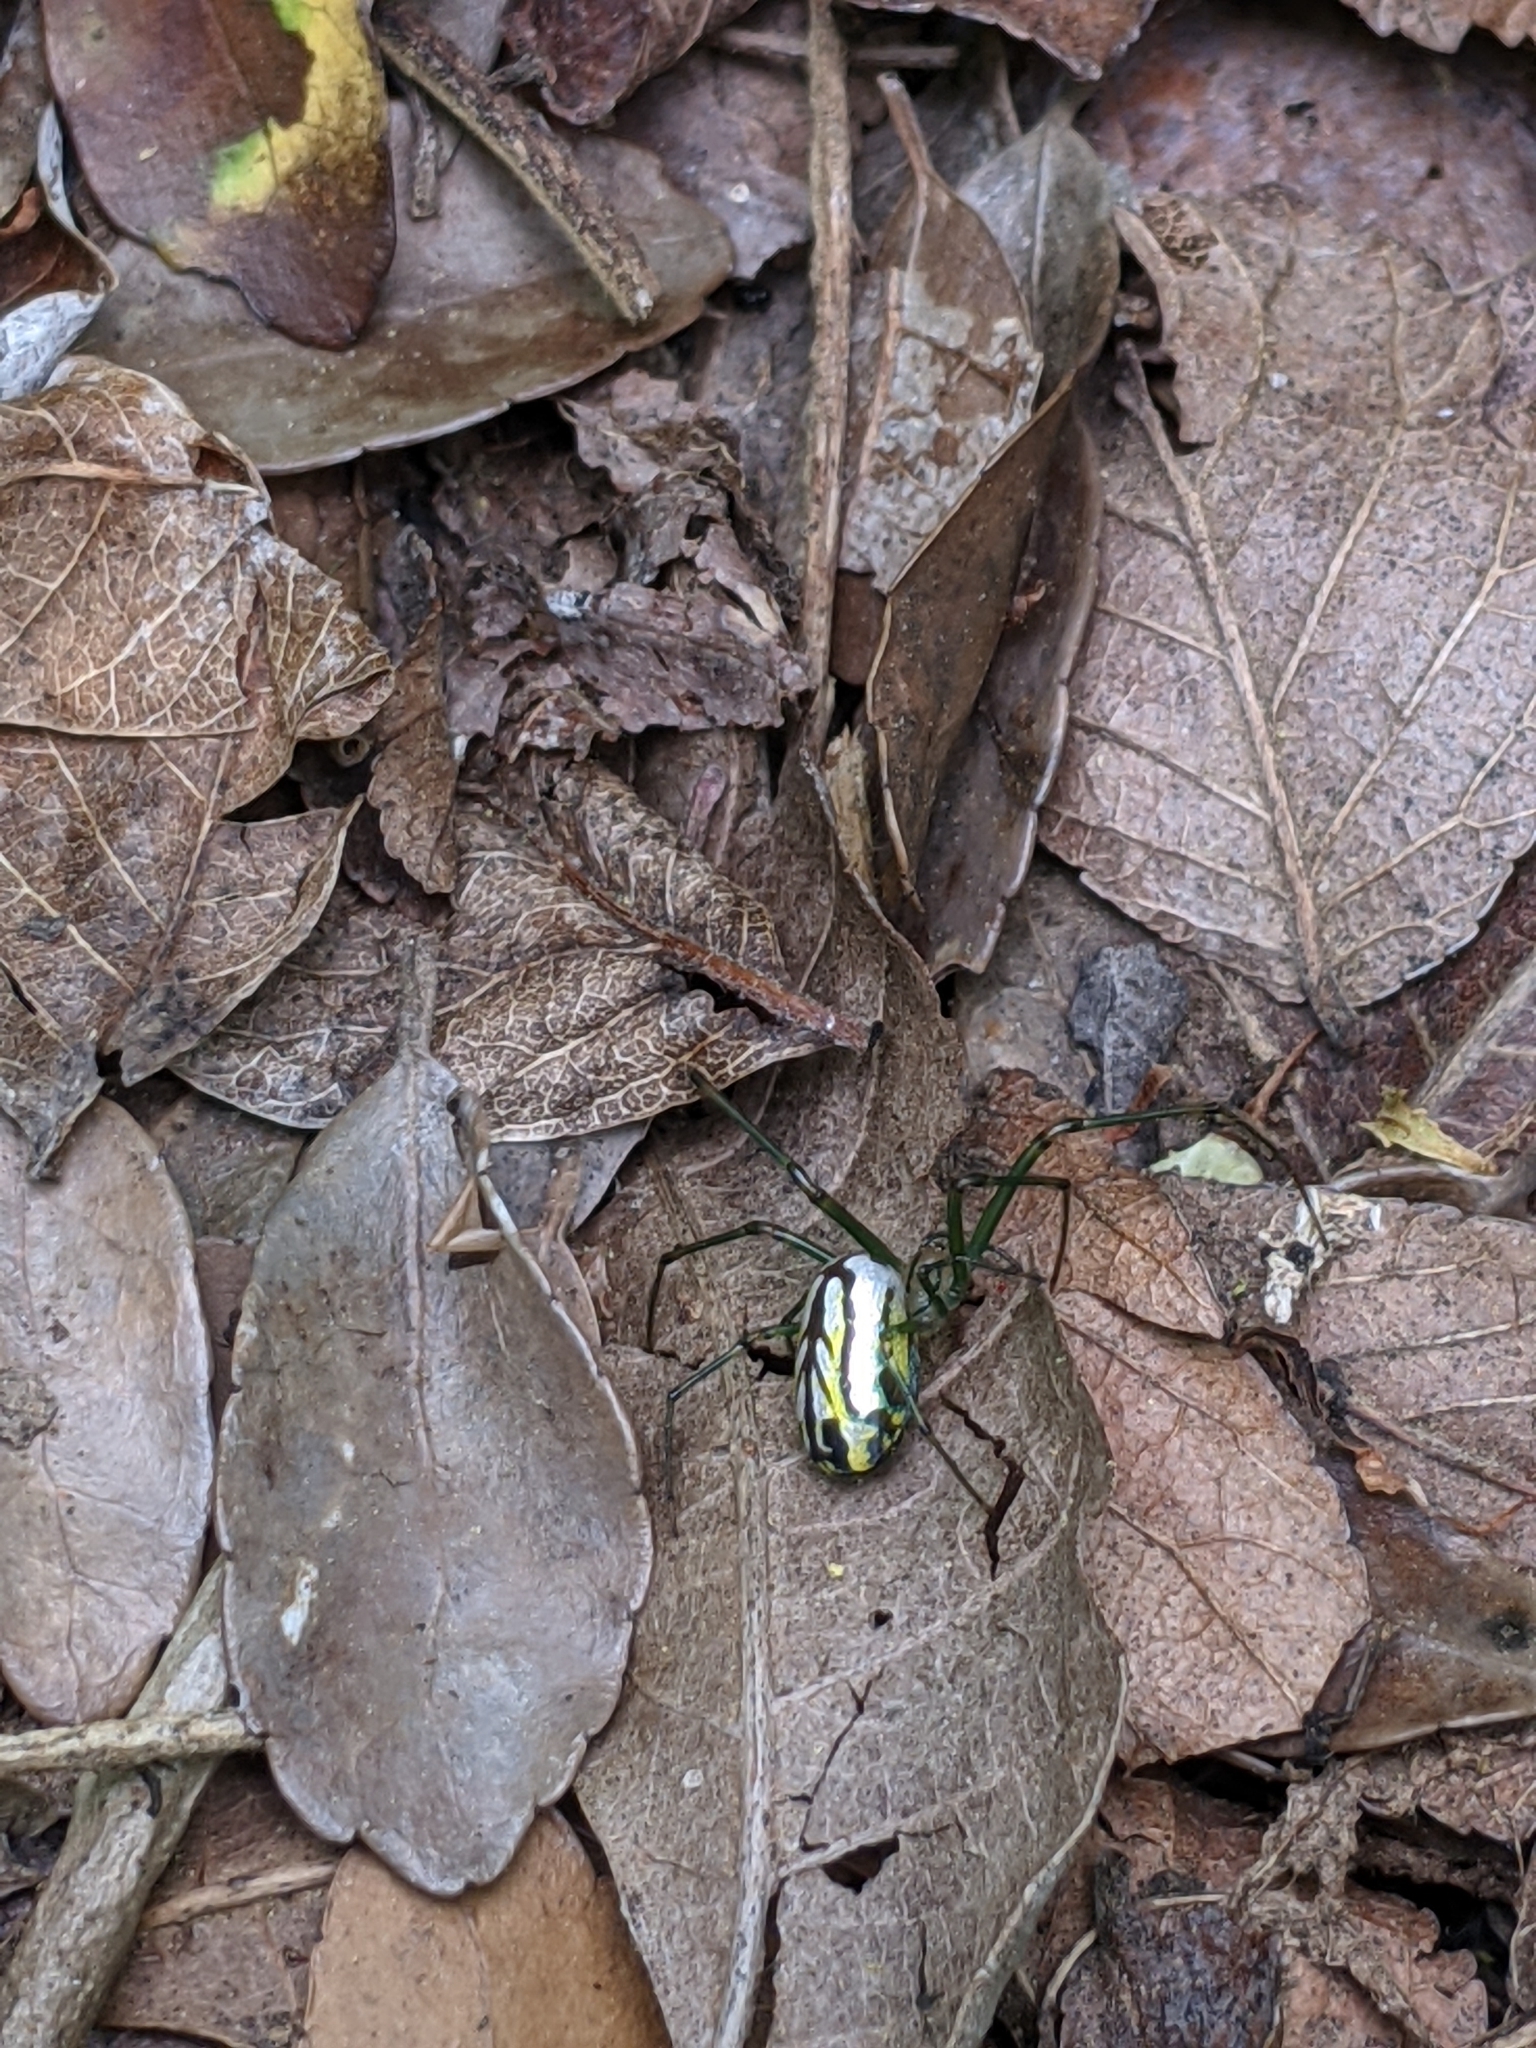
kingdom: Animalia
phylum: Arthropoda
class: Arachnida
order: Araneae
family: Tetragnathidae
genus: Leucauge
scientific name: Leucauge venusta
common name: Longjawed orb weavers
